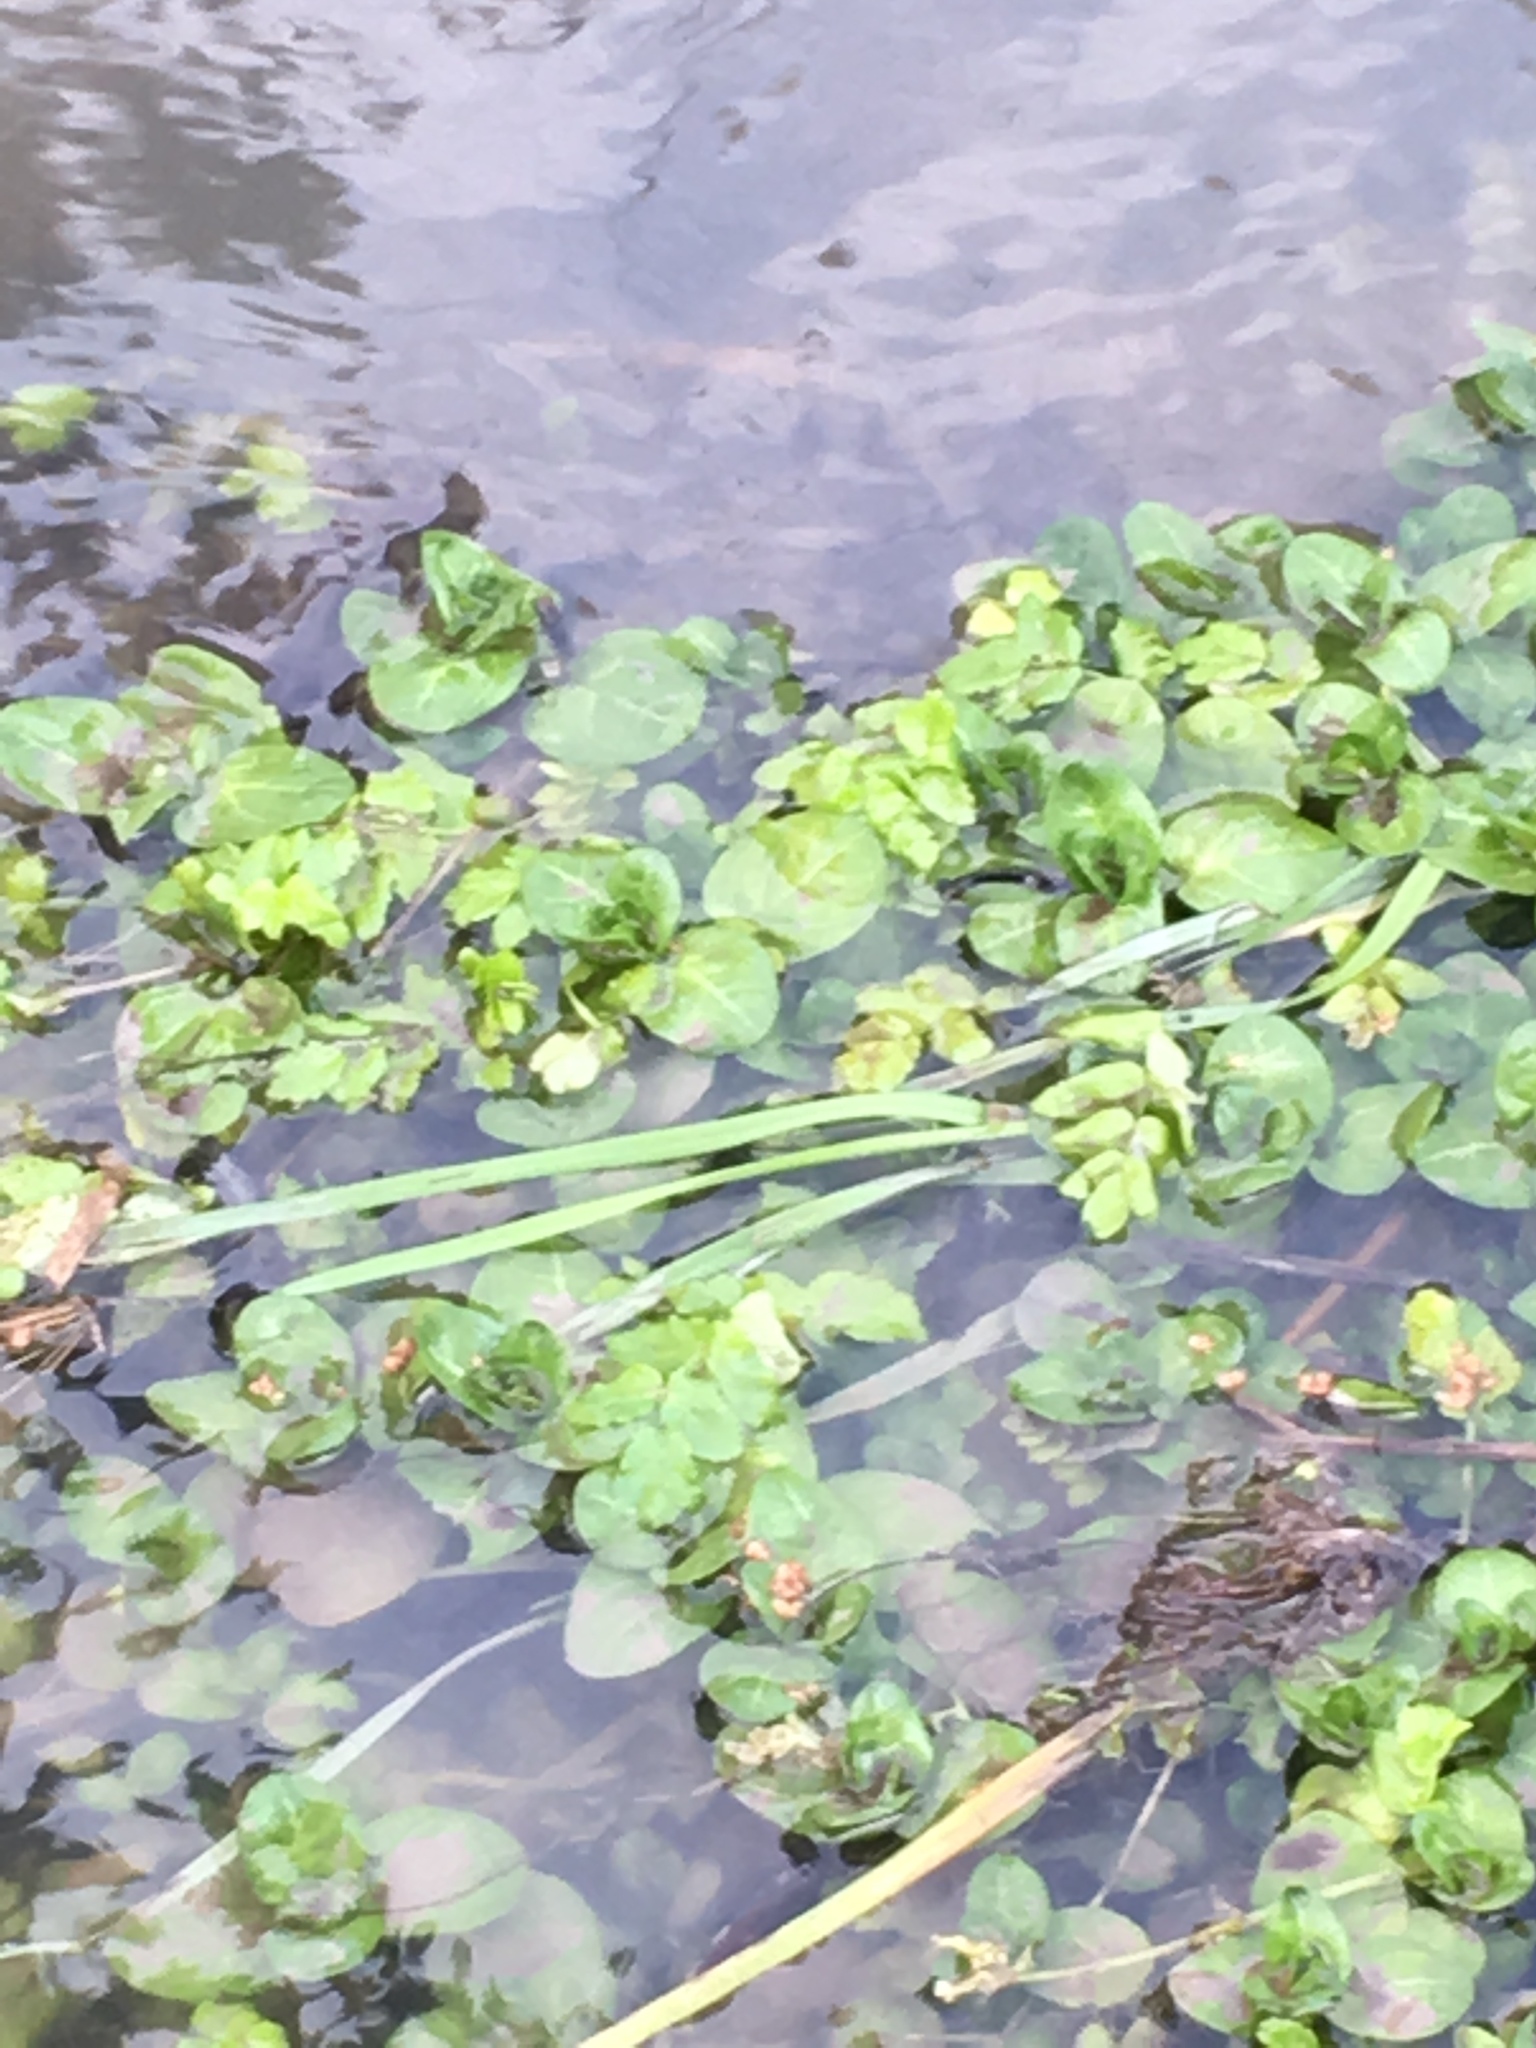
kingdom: Plantae
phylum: Tracheophyta
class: Magnoliopsida
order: Lamiales
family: Plantaginaceae
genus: Veronica
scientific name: Veronica beccabunga
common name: Brooklime
